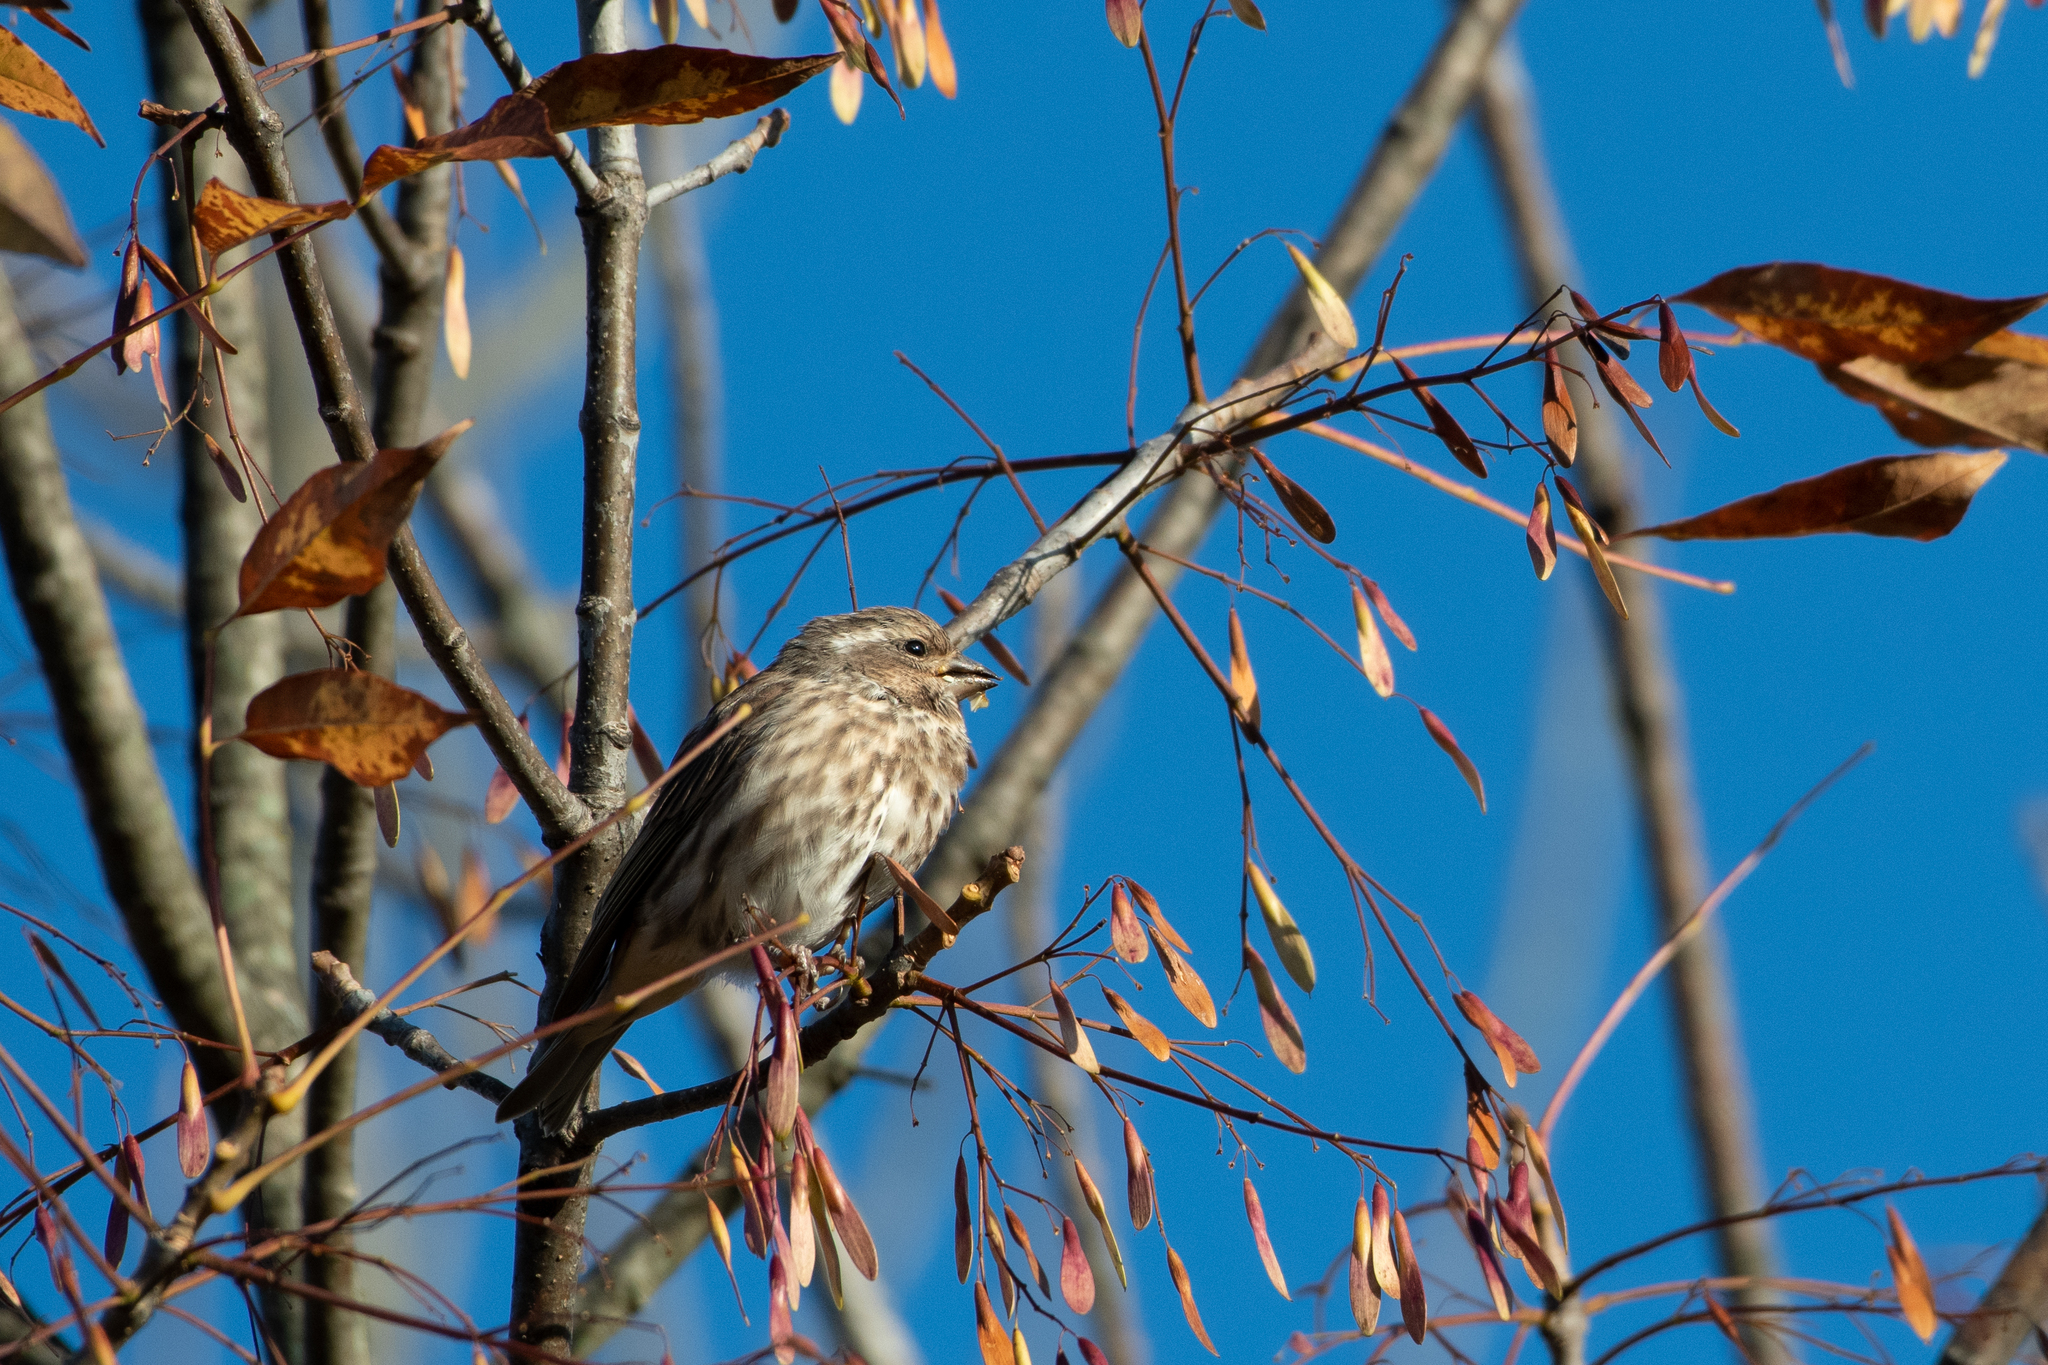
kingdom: Animalia
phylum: Chordata
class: Aves
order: Passeriformes
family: Fringillidae
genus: Haemorhous
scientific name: Haemorhous purpureus
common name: Purple finch
